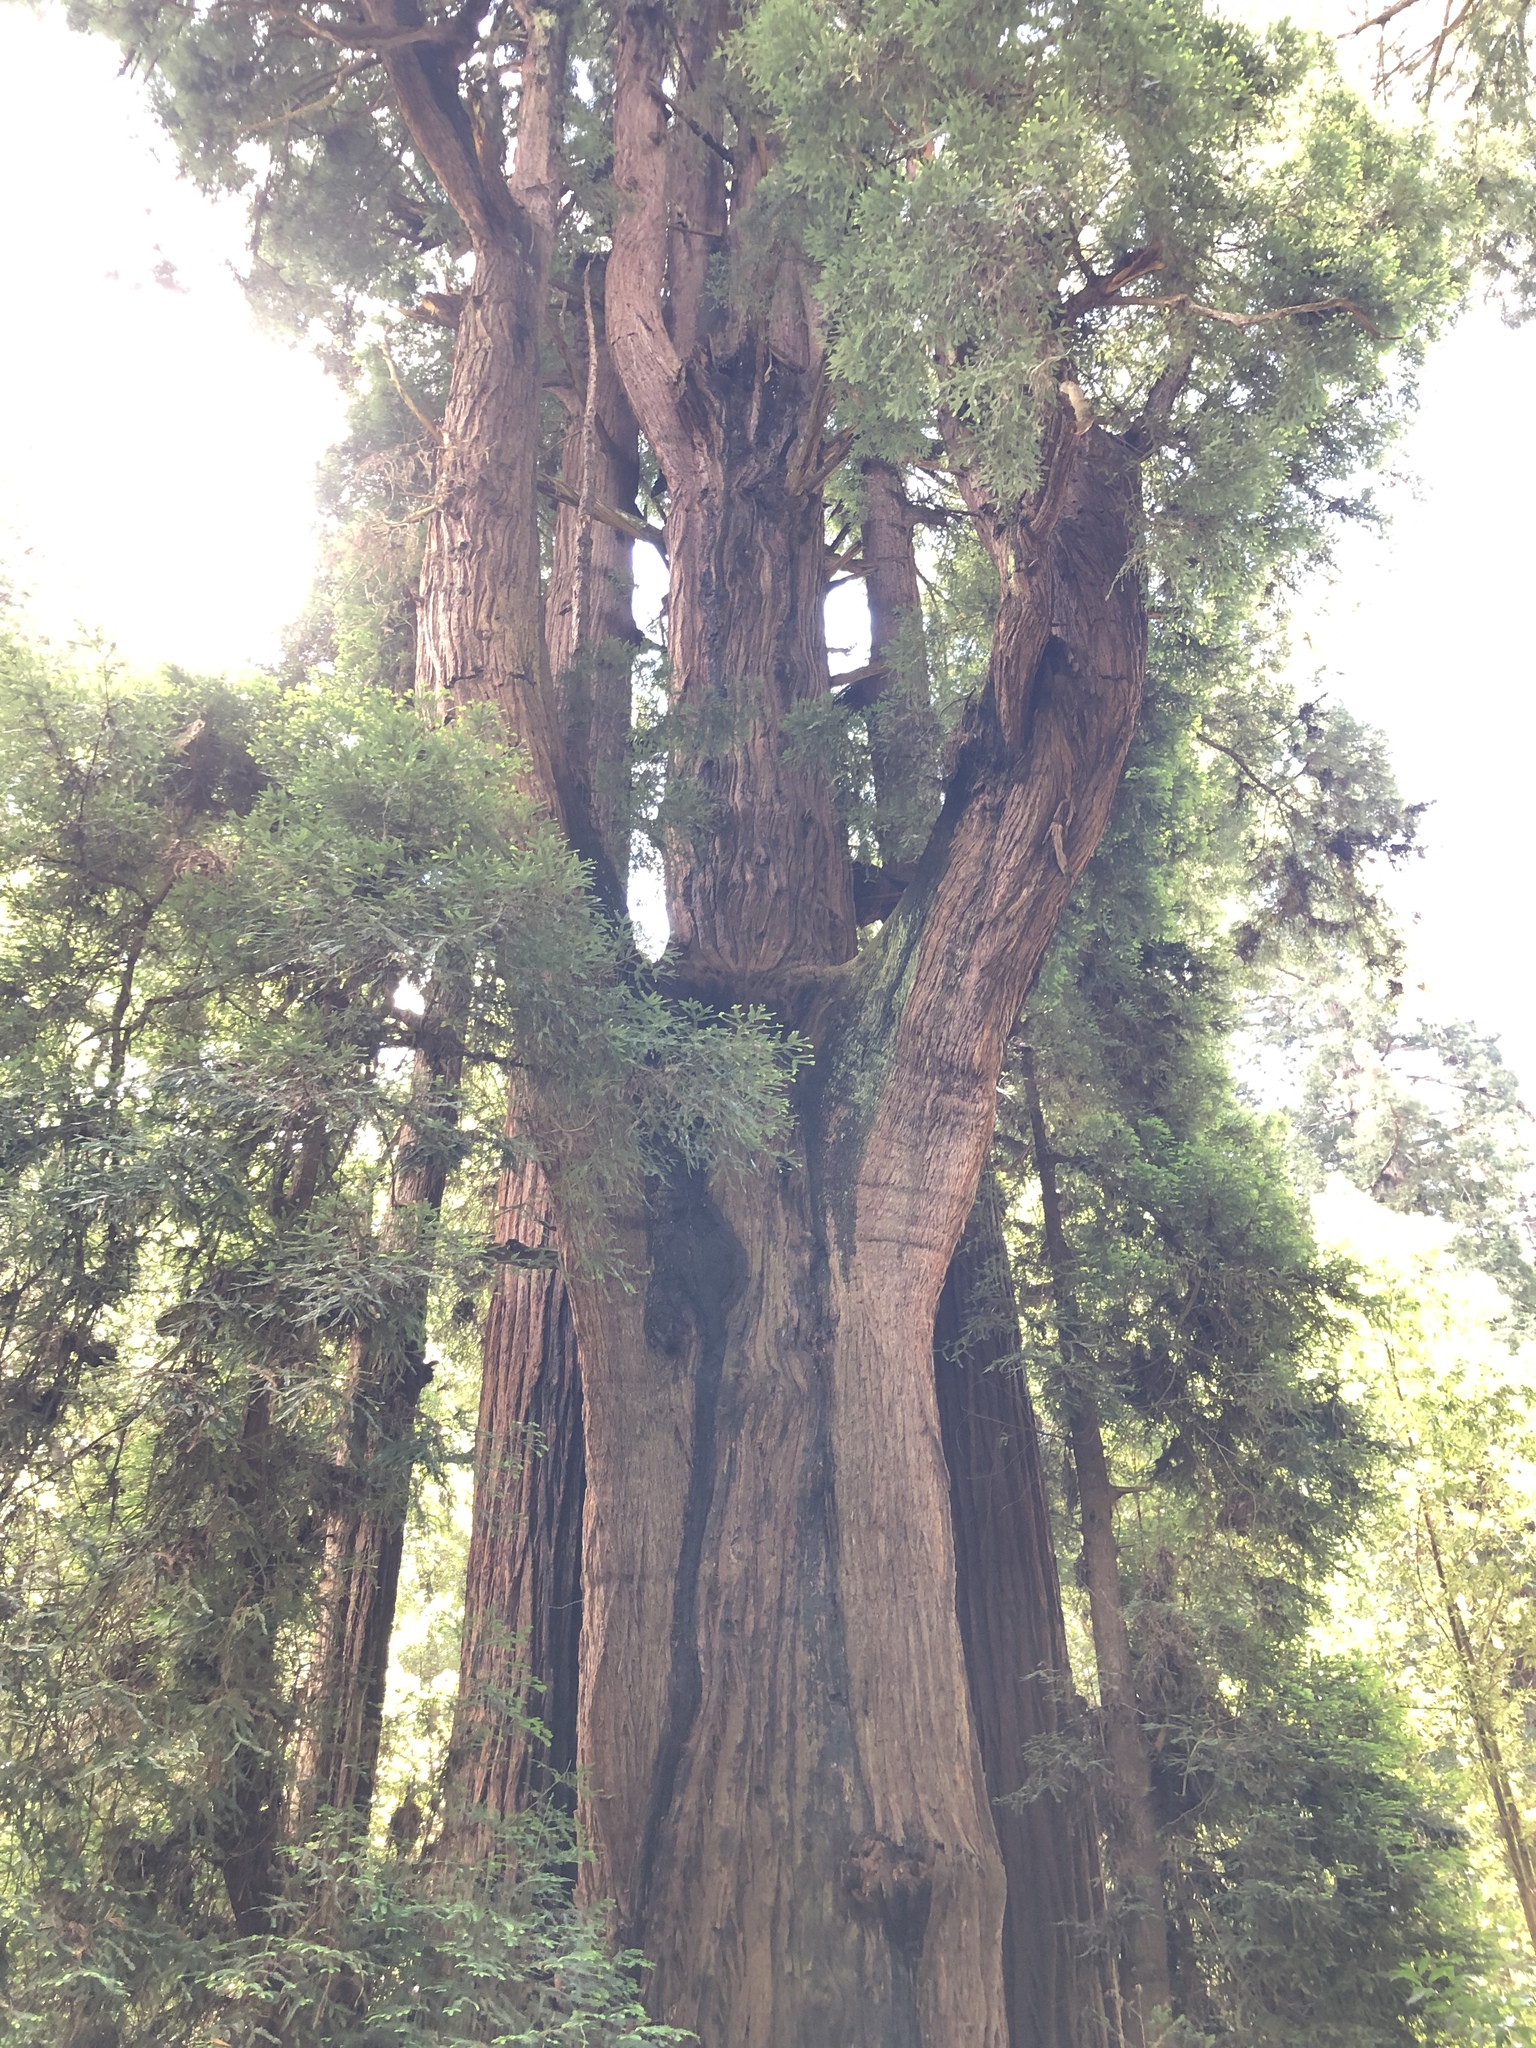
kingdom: Plantae
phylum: Tracheophyta
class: Pinopsida
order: Pinales
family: Cupressaceae
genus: Sequoia
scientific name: Sequoia sempervirens
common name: Coast redwood
